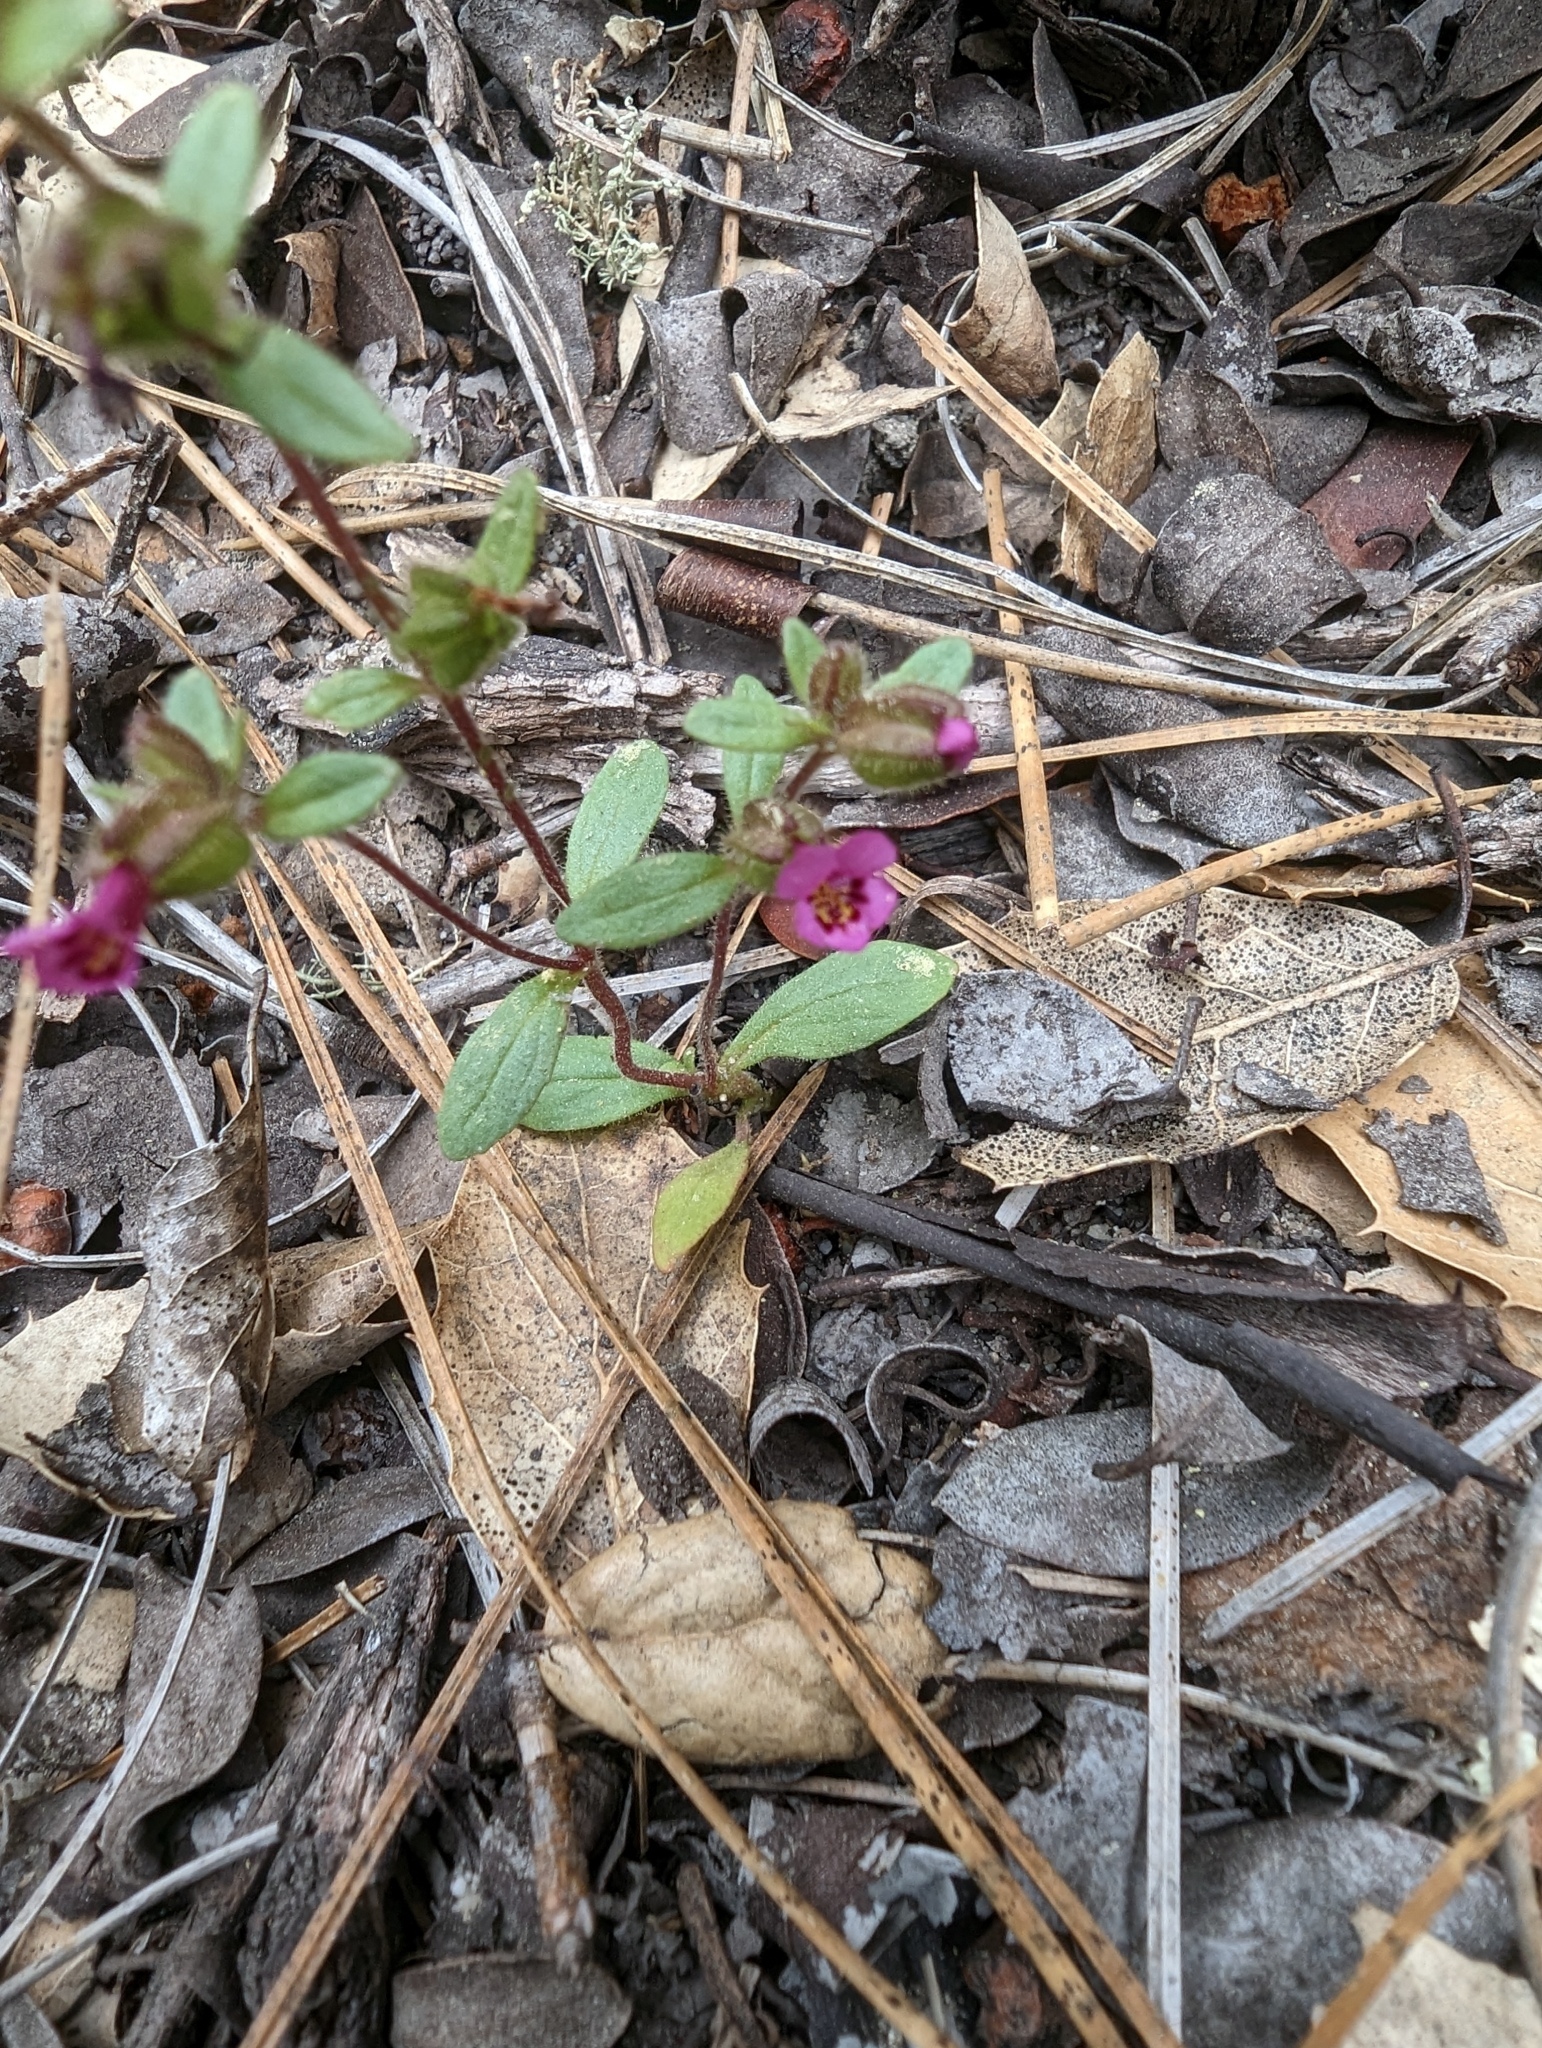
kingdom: Plantae
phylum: Tracheophyta
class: Magnoliopsida
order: Lamiales
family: Phrymaceae
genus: Diplacus
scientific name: Diplacus rattanii
